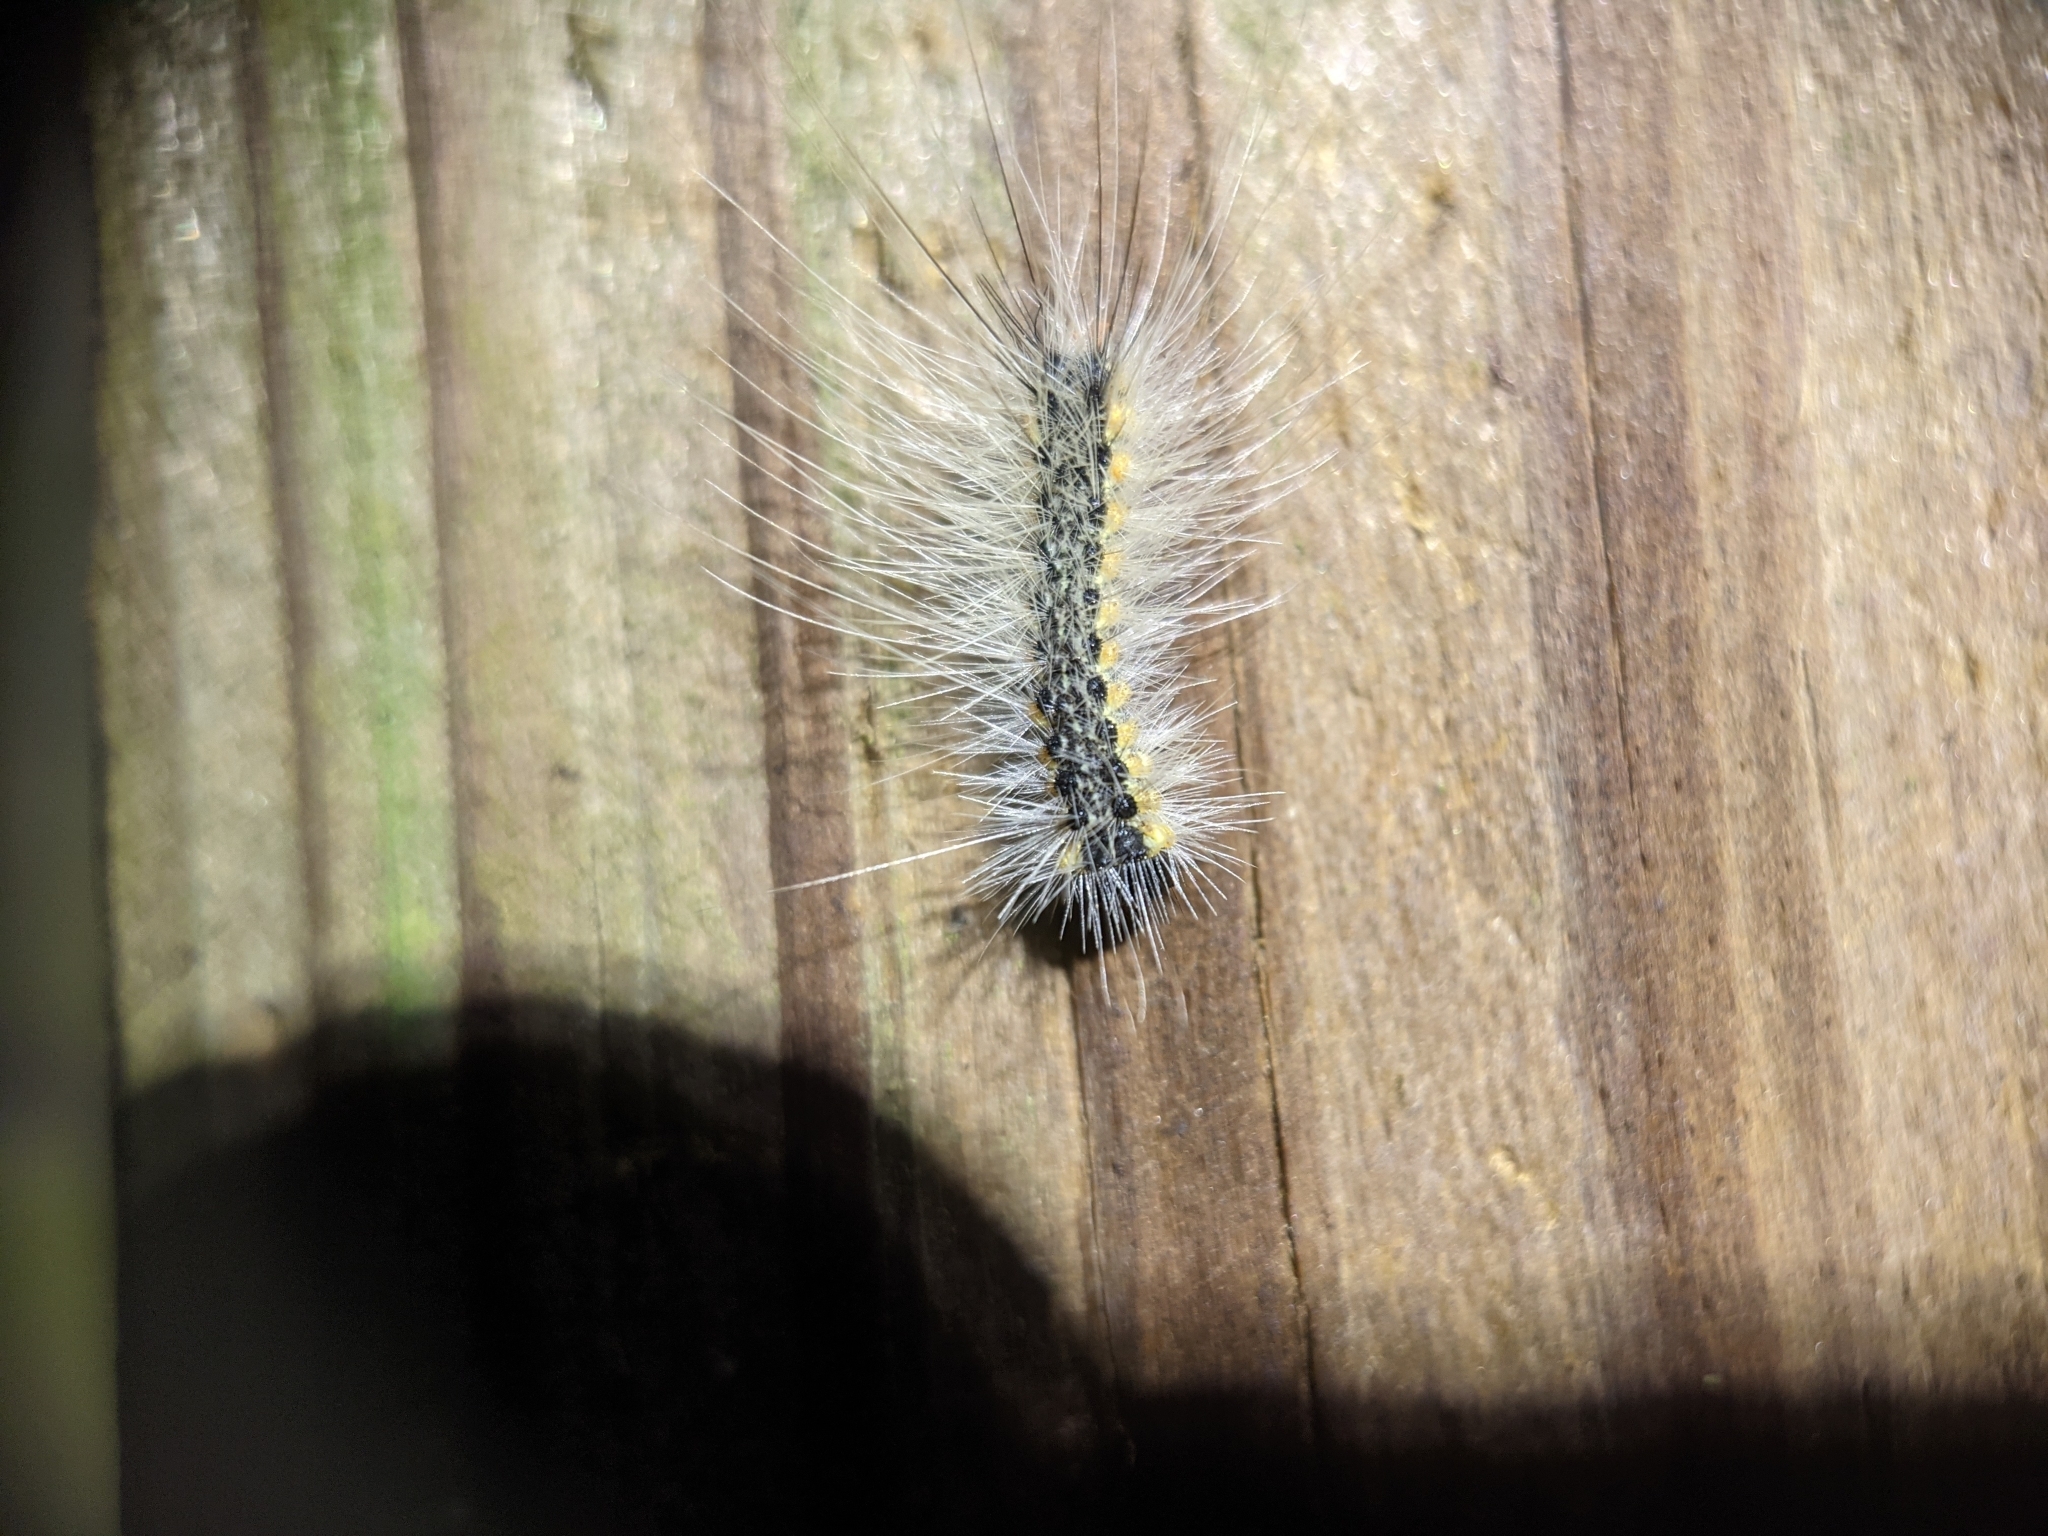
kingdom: Animalia
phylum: Arthropoda
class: Insecta
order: Lepidoptera
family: Erebidae
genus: Hyphantria
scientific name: Hyphantria cunea
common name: American white moth
